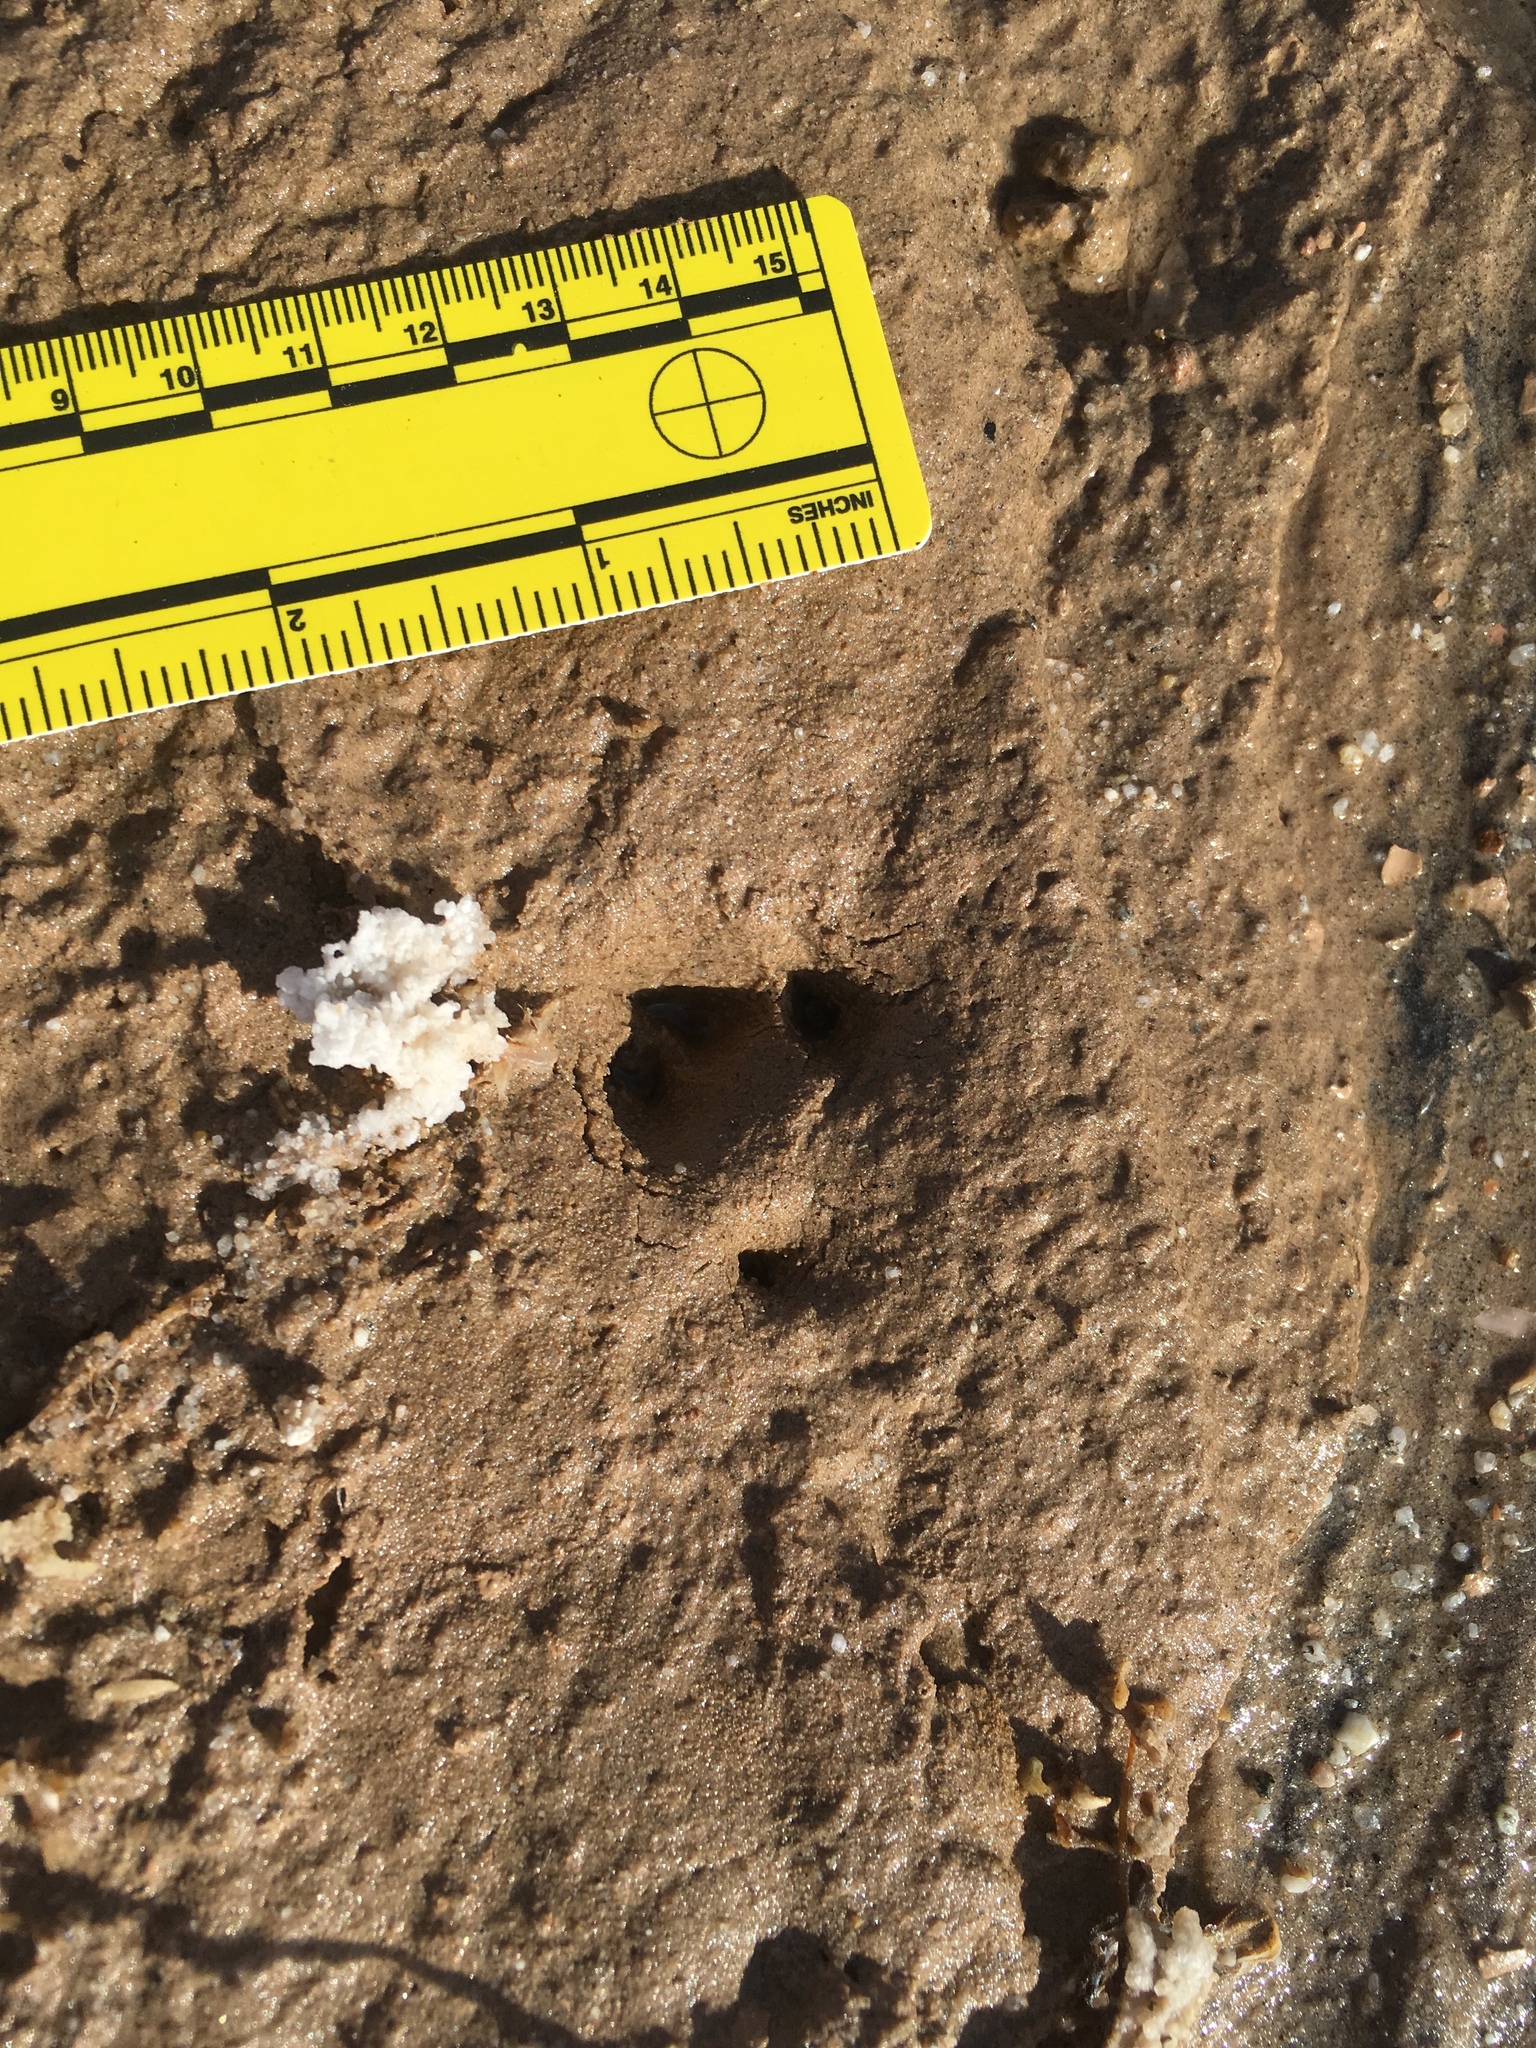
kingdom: Animalia
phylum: Chordata
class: Mammalia
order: Lagomorpha
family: Leporidae
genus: Lepus
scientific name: Lepus californicus
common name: Black-tailed jackrabbit
